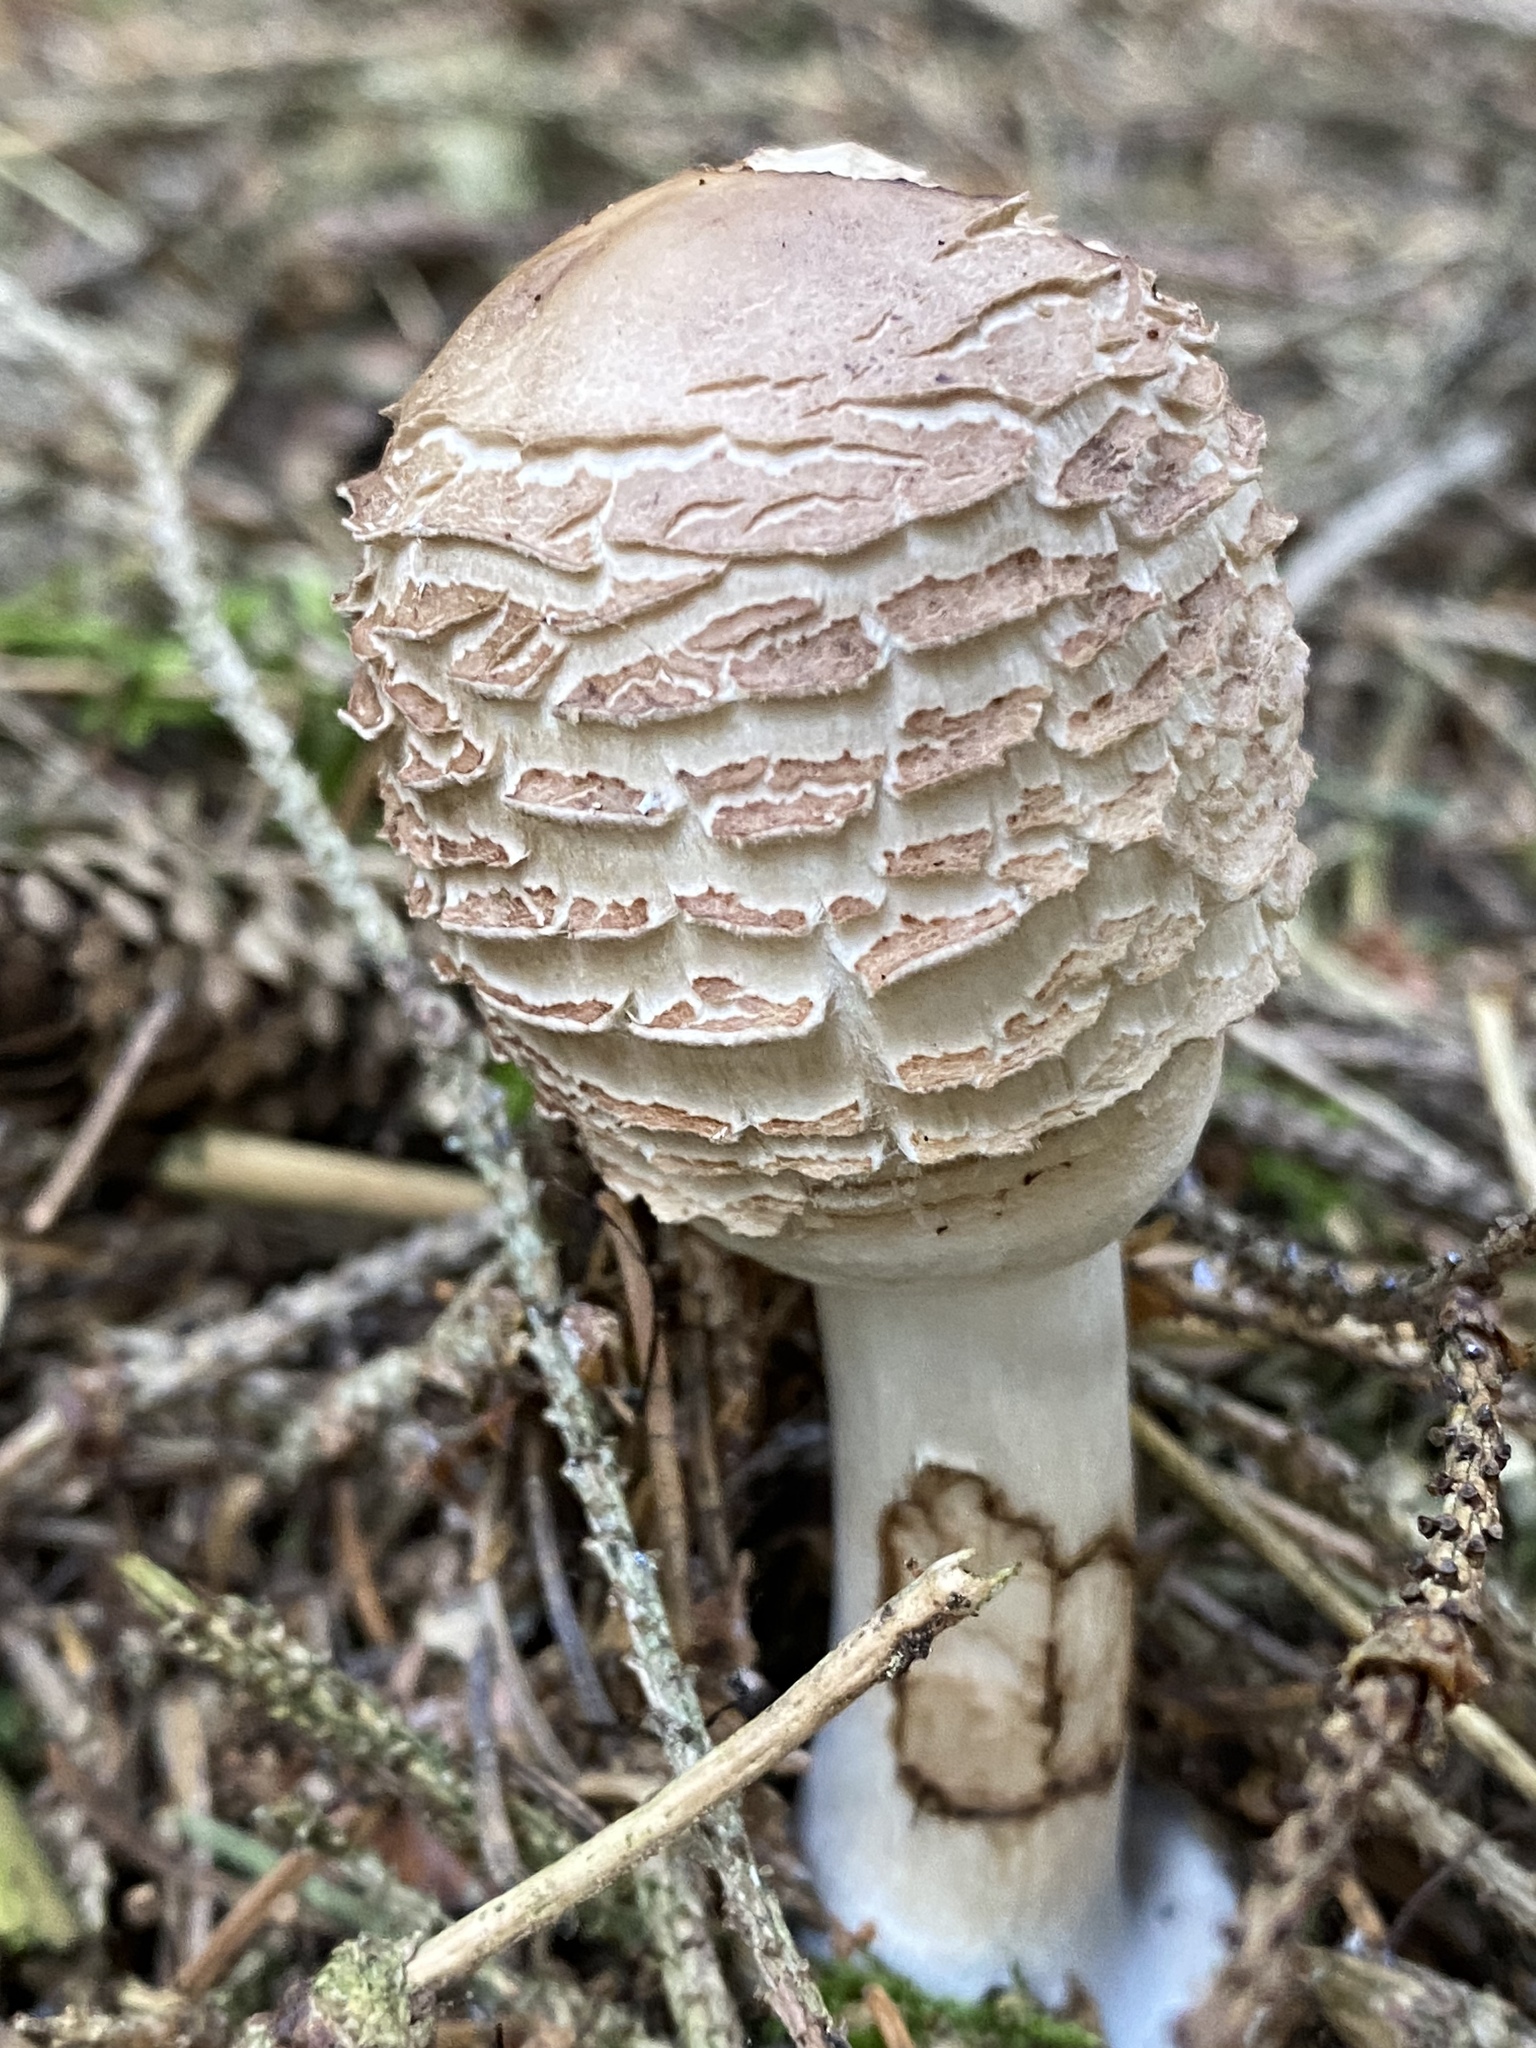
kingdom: Fungi
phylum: Basidiomycota
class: Agaricomycetes
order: Agaricales
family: Agaricaceae
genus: Chlorophyllum
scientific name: Chlorophyllum rhacodes
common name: Shaggy parasol
